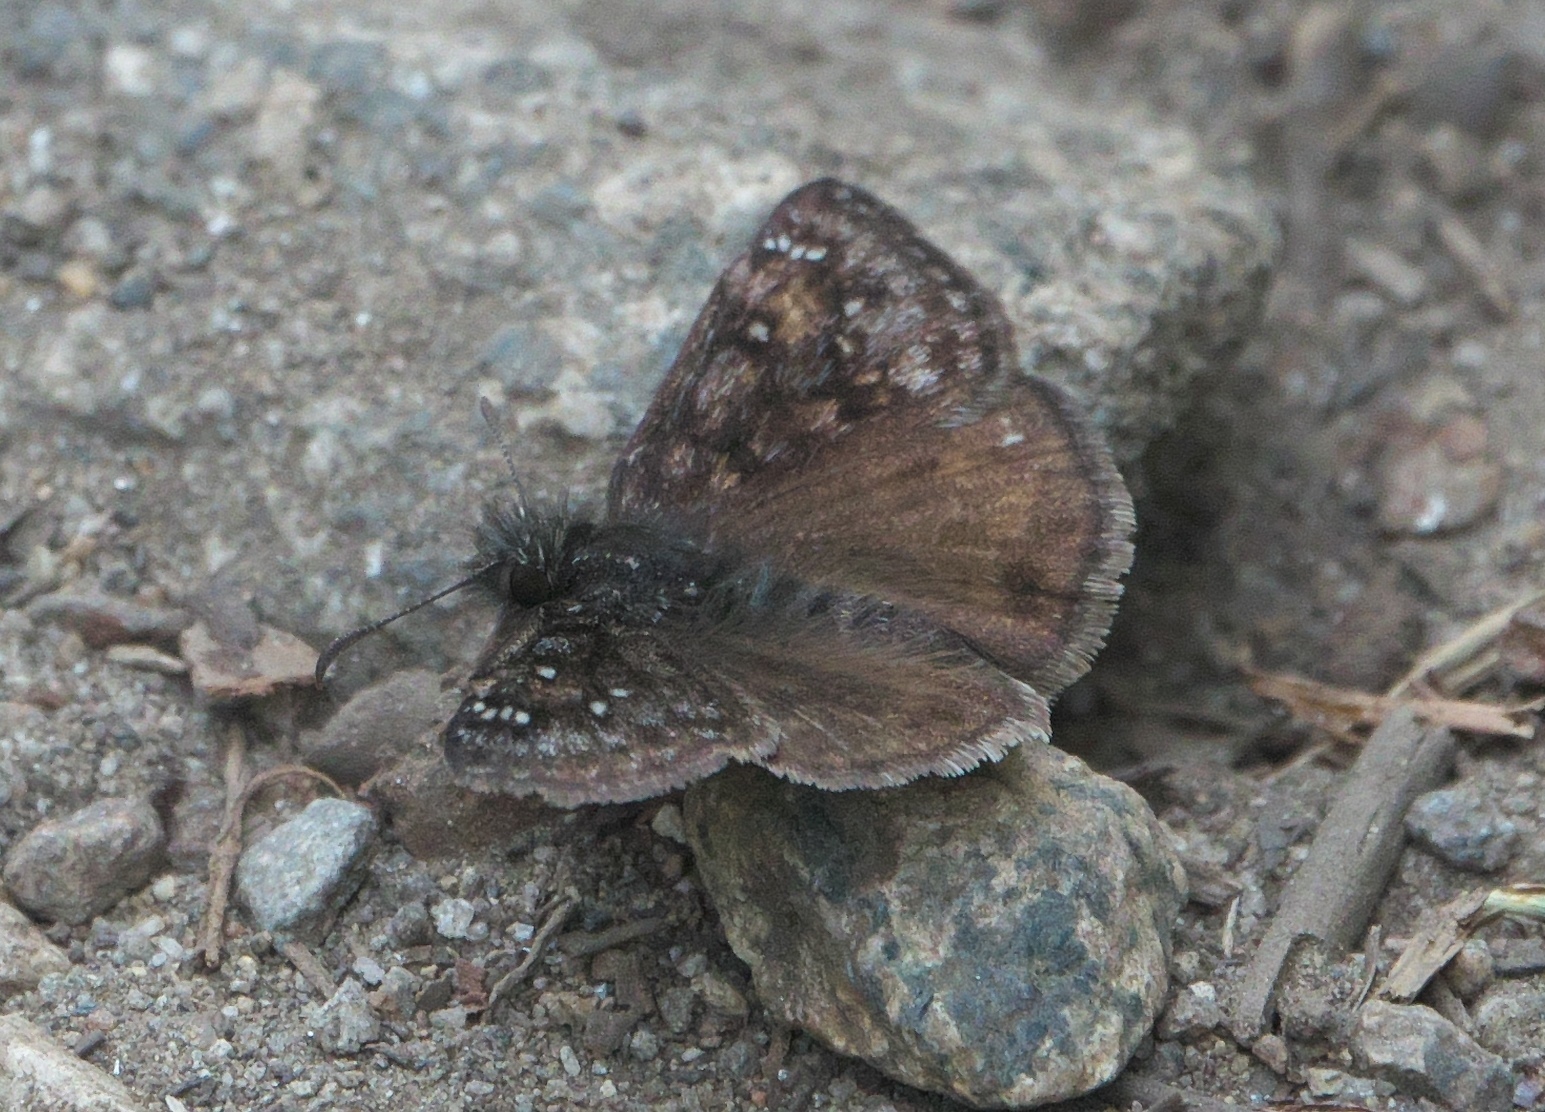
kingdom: Animalia
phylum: Arthropoda
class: Insecta
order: Lepidoptera
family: Hesperiidae
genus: Erynnis
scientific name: Erynnis pacuvius
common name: Pacuvius duskywing
